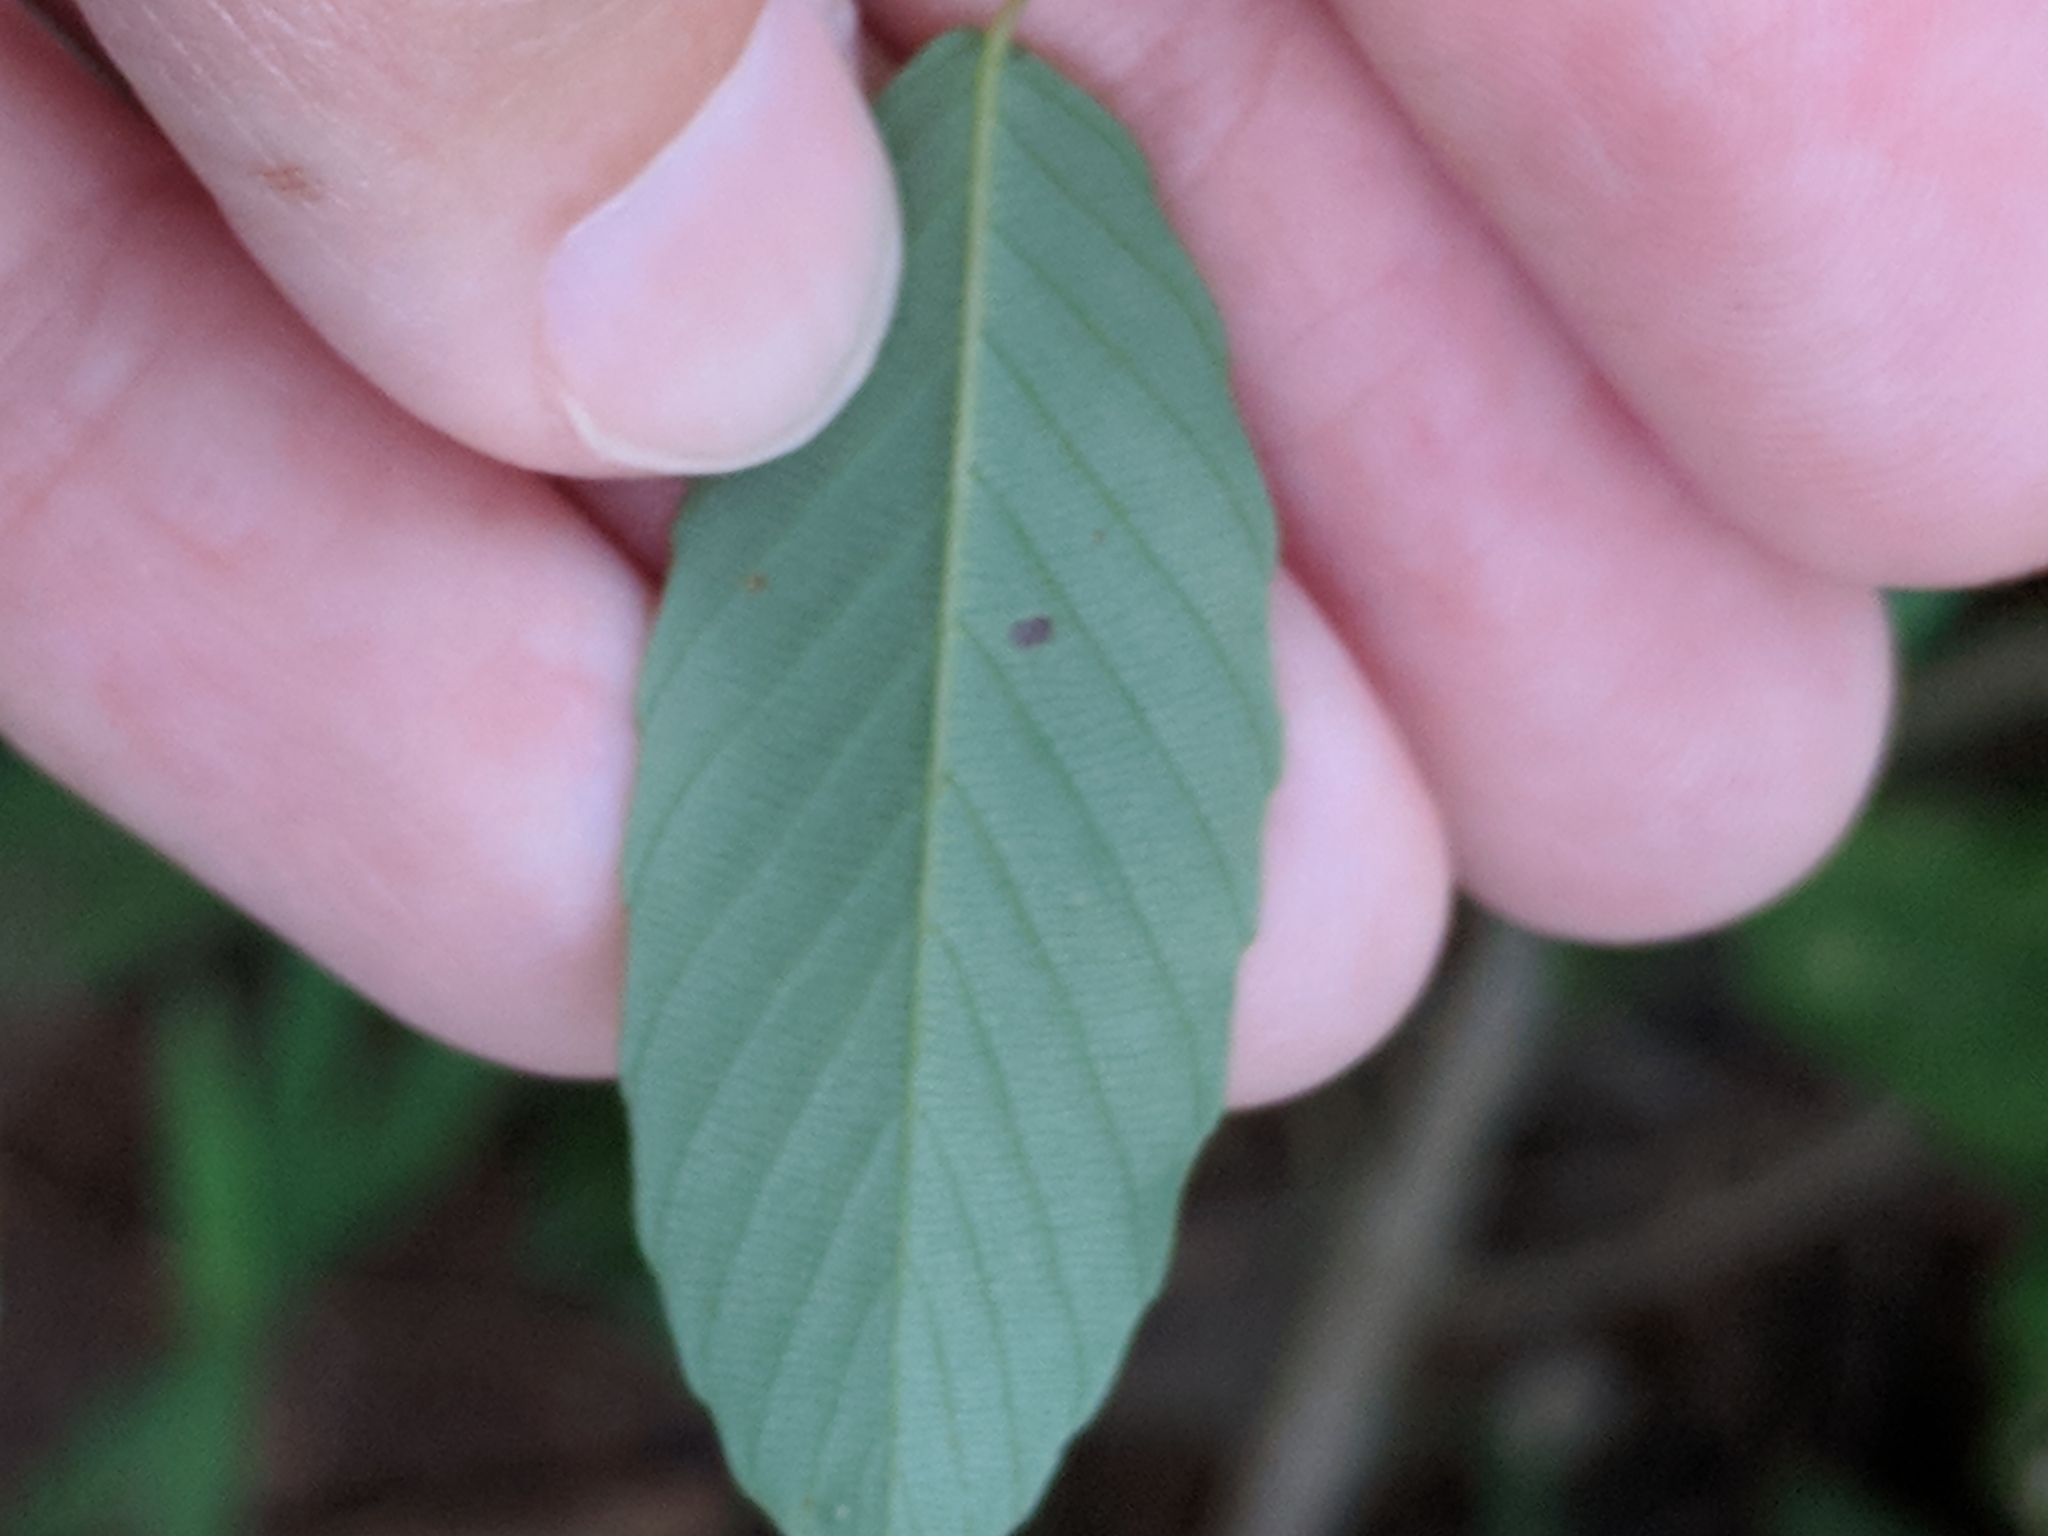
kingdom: Plantae
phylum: Tracheophyta
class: Magnoliopsida
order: Rosales
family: Rhamnaceae
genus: Berchemia
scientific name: Berchemia scandens
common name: Supplejack
